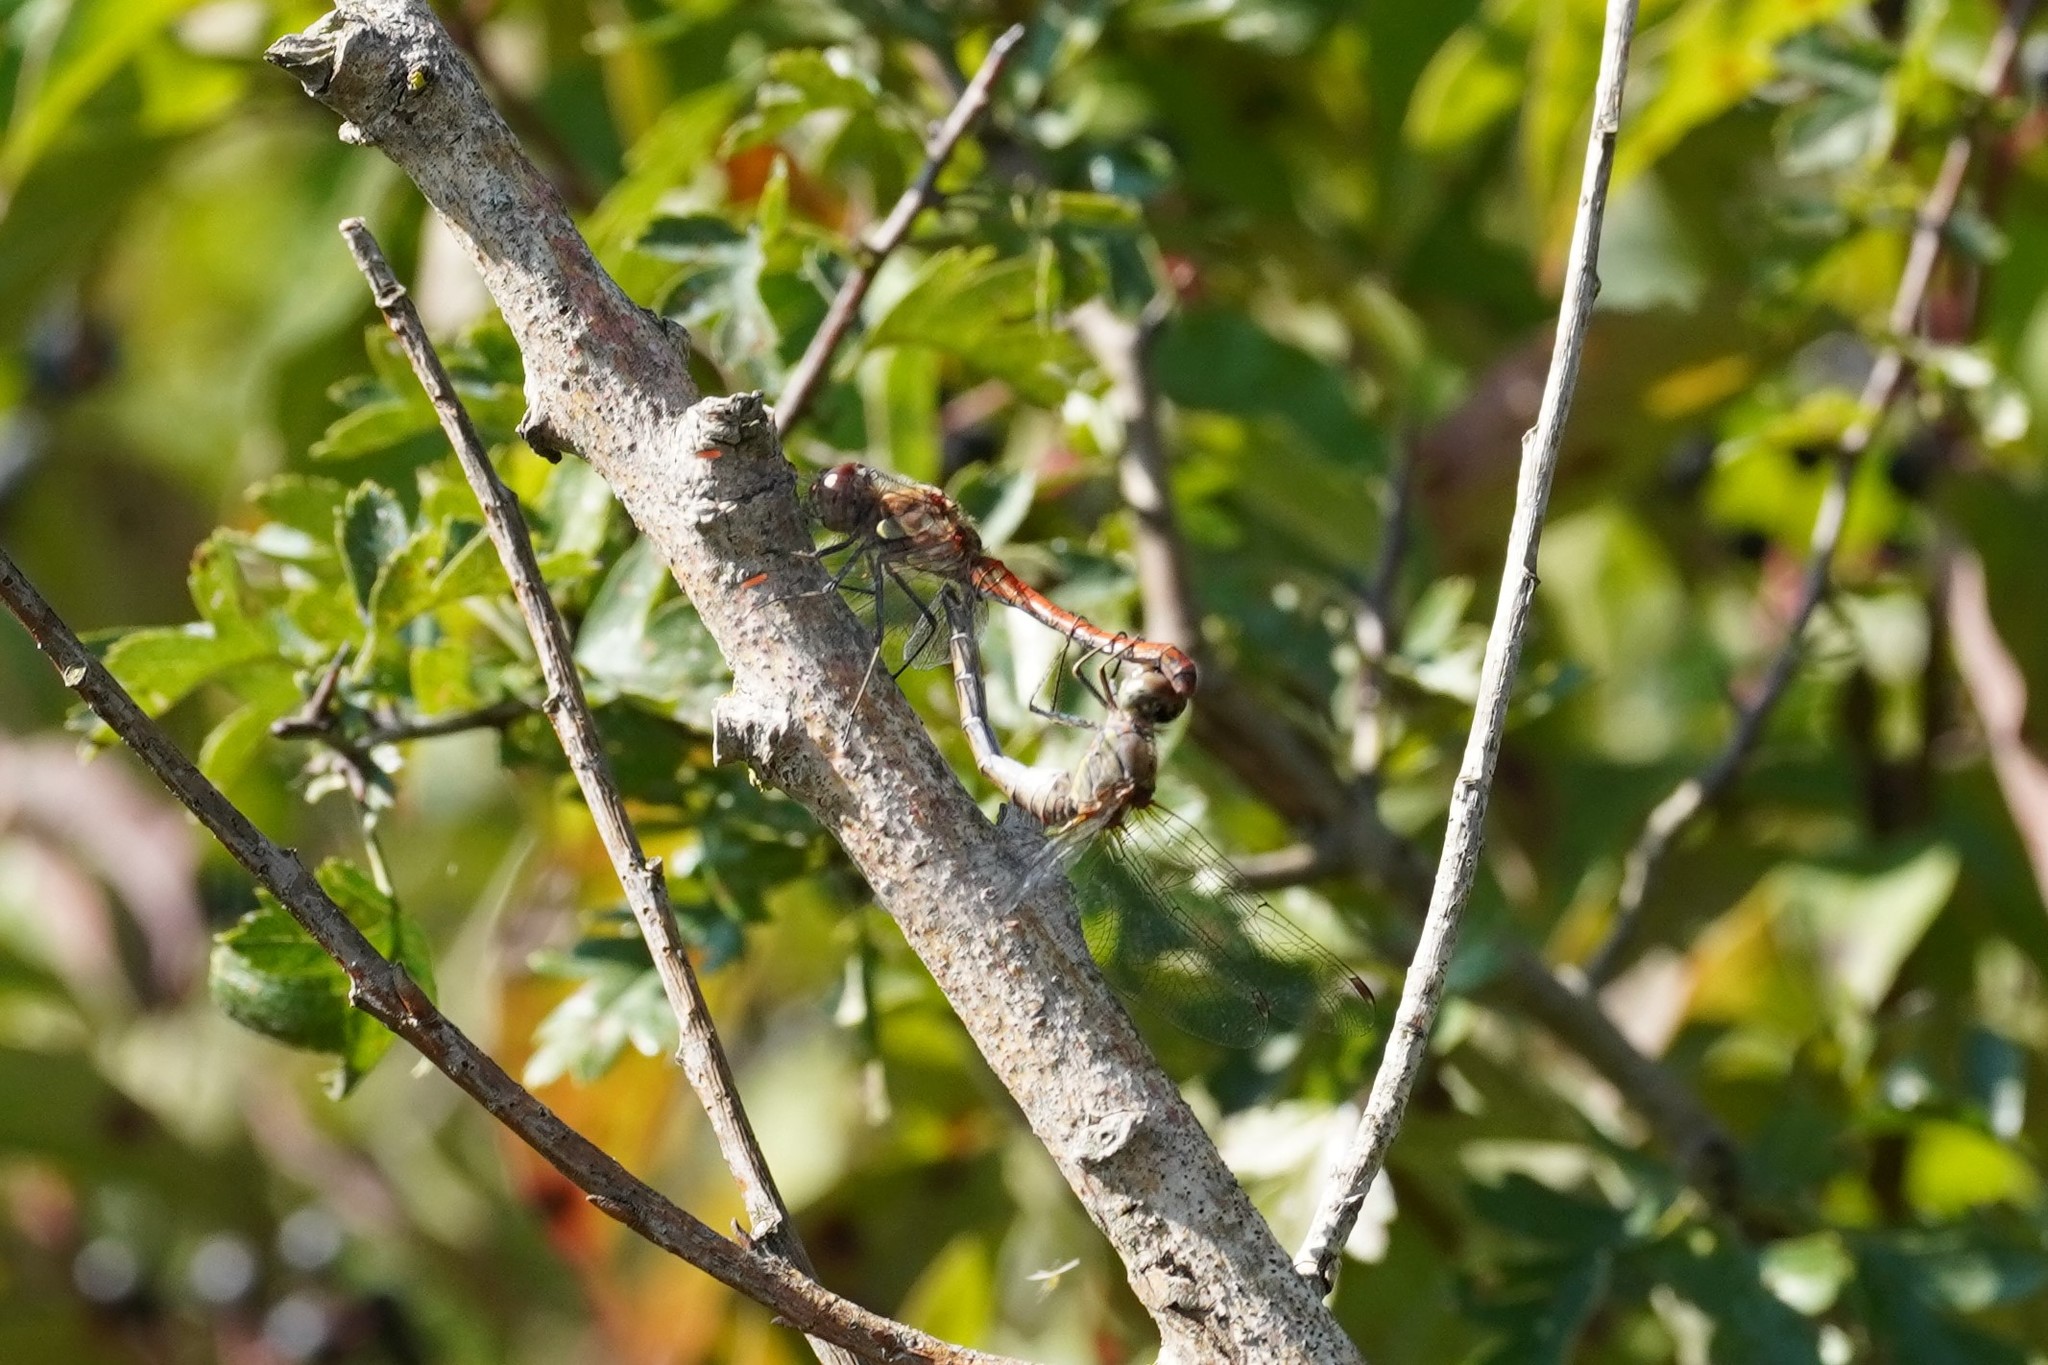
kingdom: Animalia
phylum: Arthropoda
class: Insecta
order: Odonata
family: Libellulidae
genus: Sympetrum
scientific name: Sympetrum striolatum
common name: Common darter
